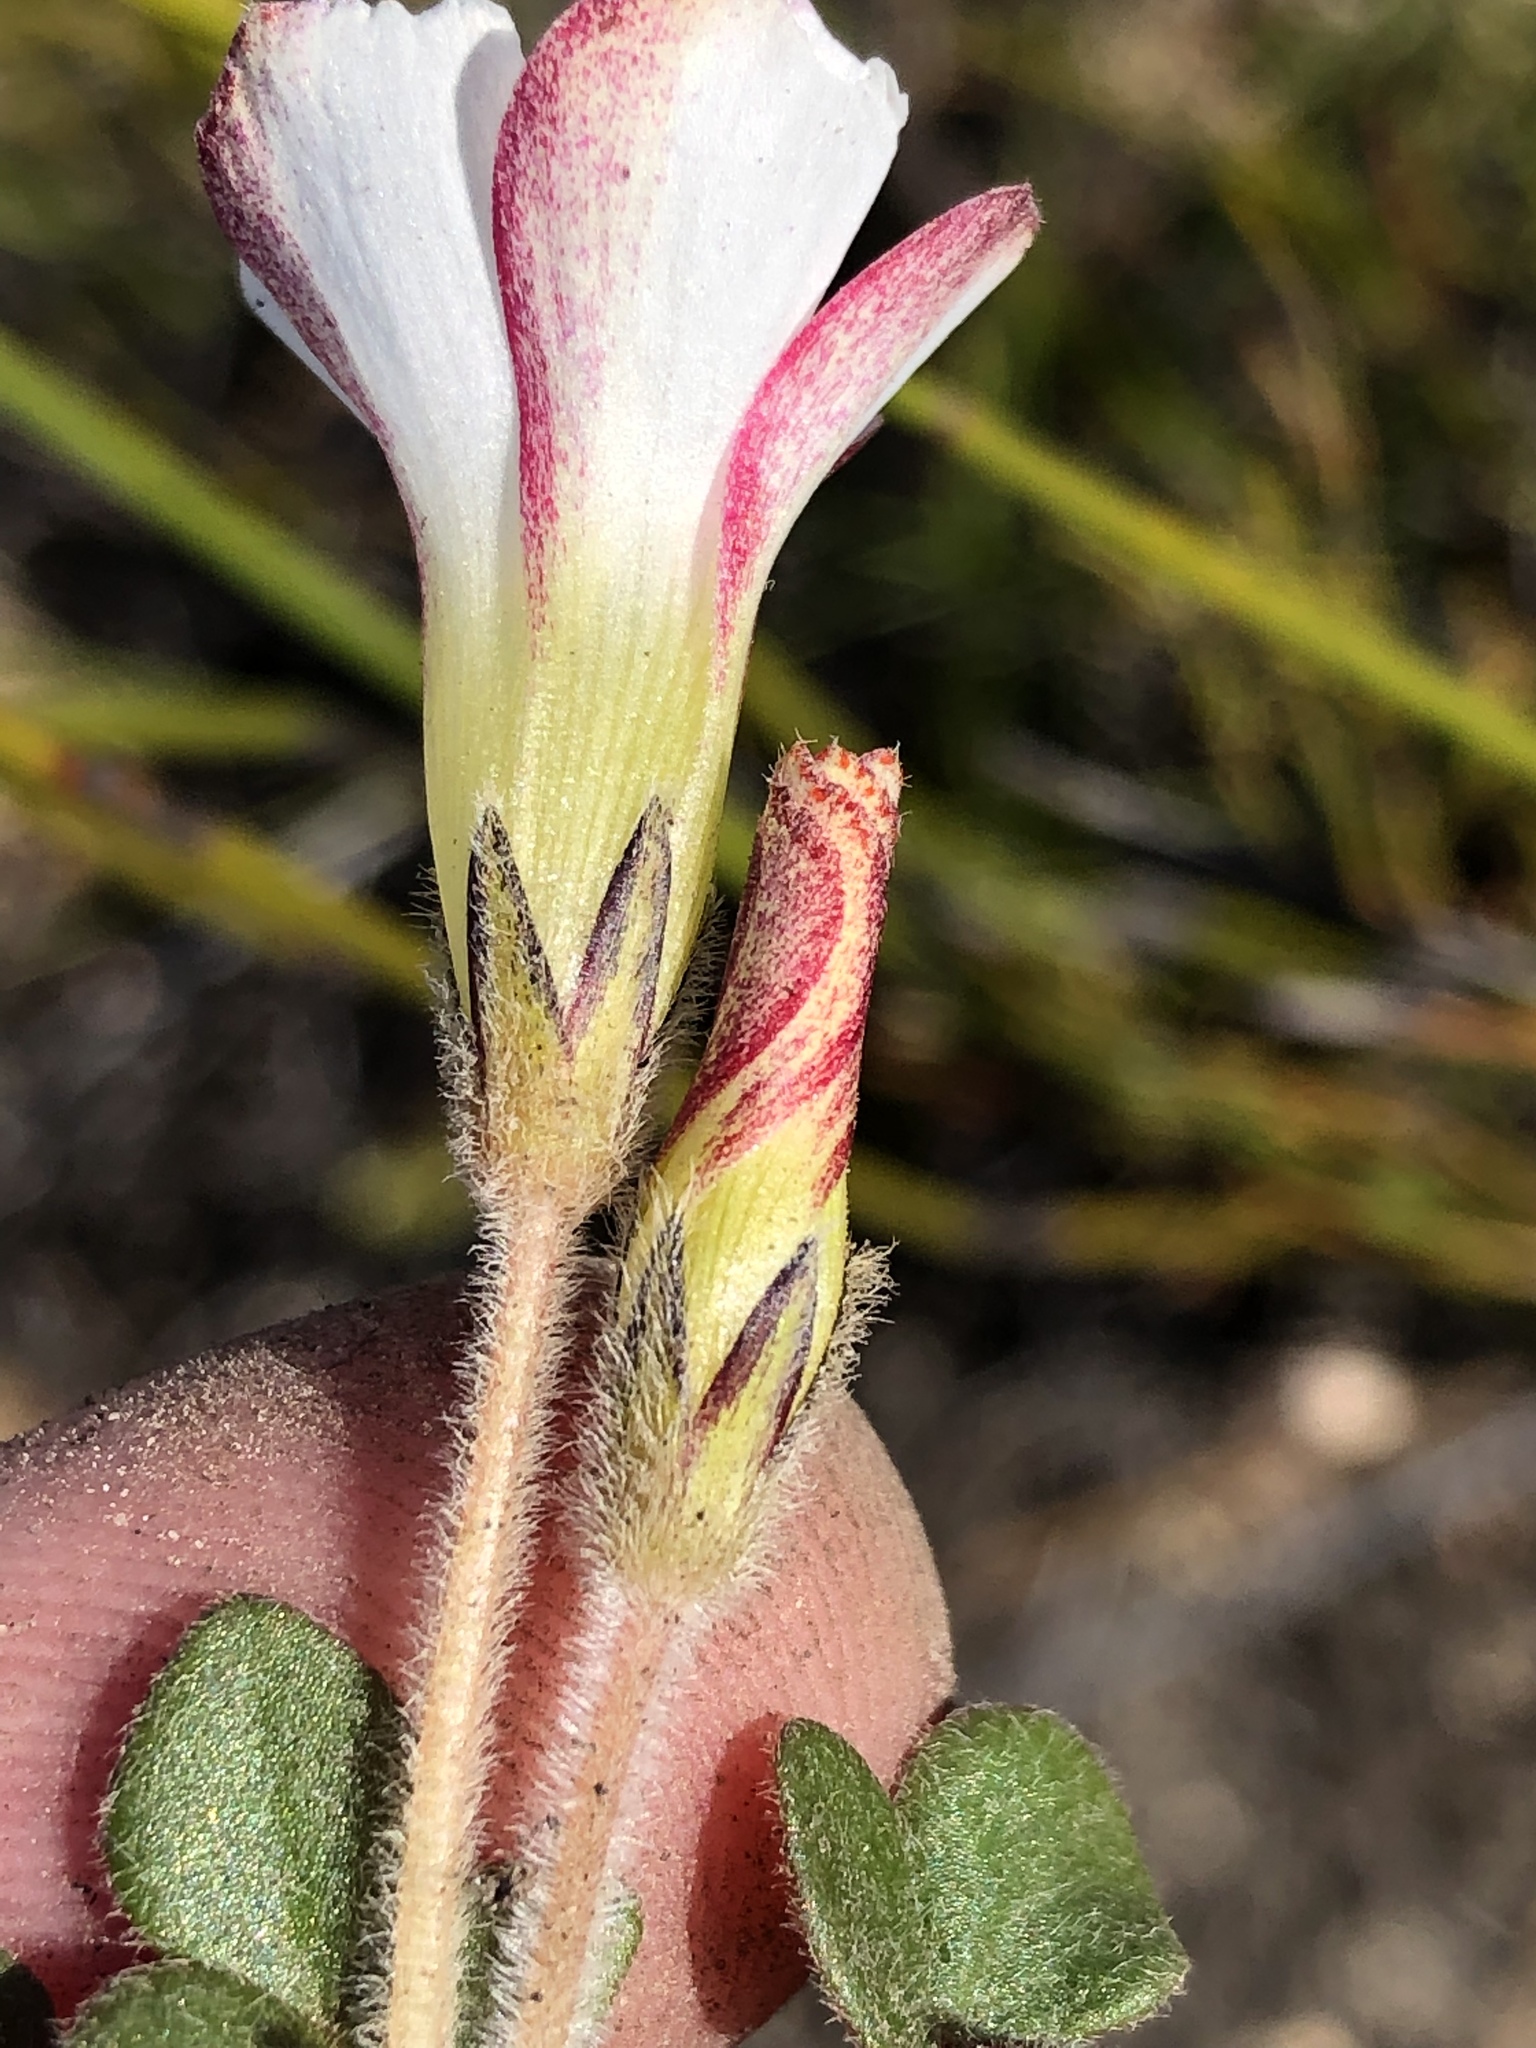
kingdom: Plantae
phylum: Tracheophyta
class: Magnoliopsida
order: Oxalidales
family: Oxalidaceae
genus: Oxalis
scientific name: Oxalis algoensis
